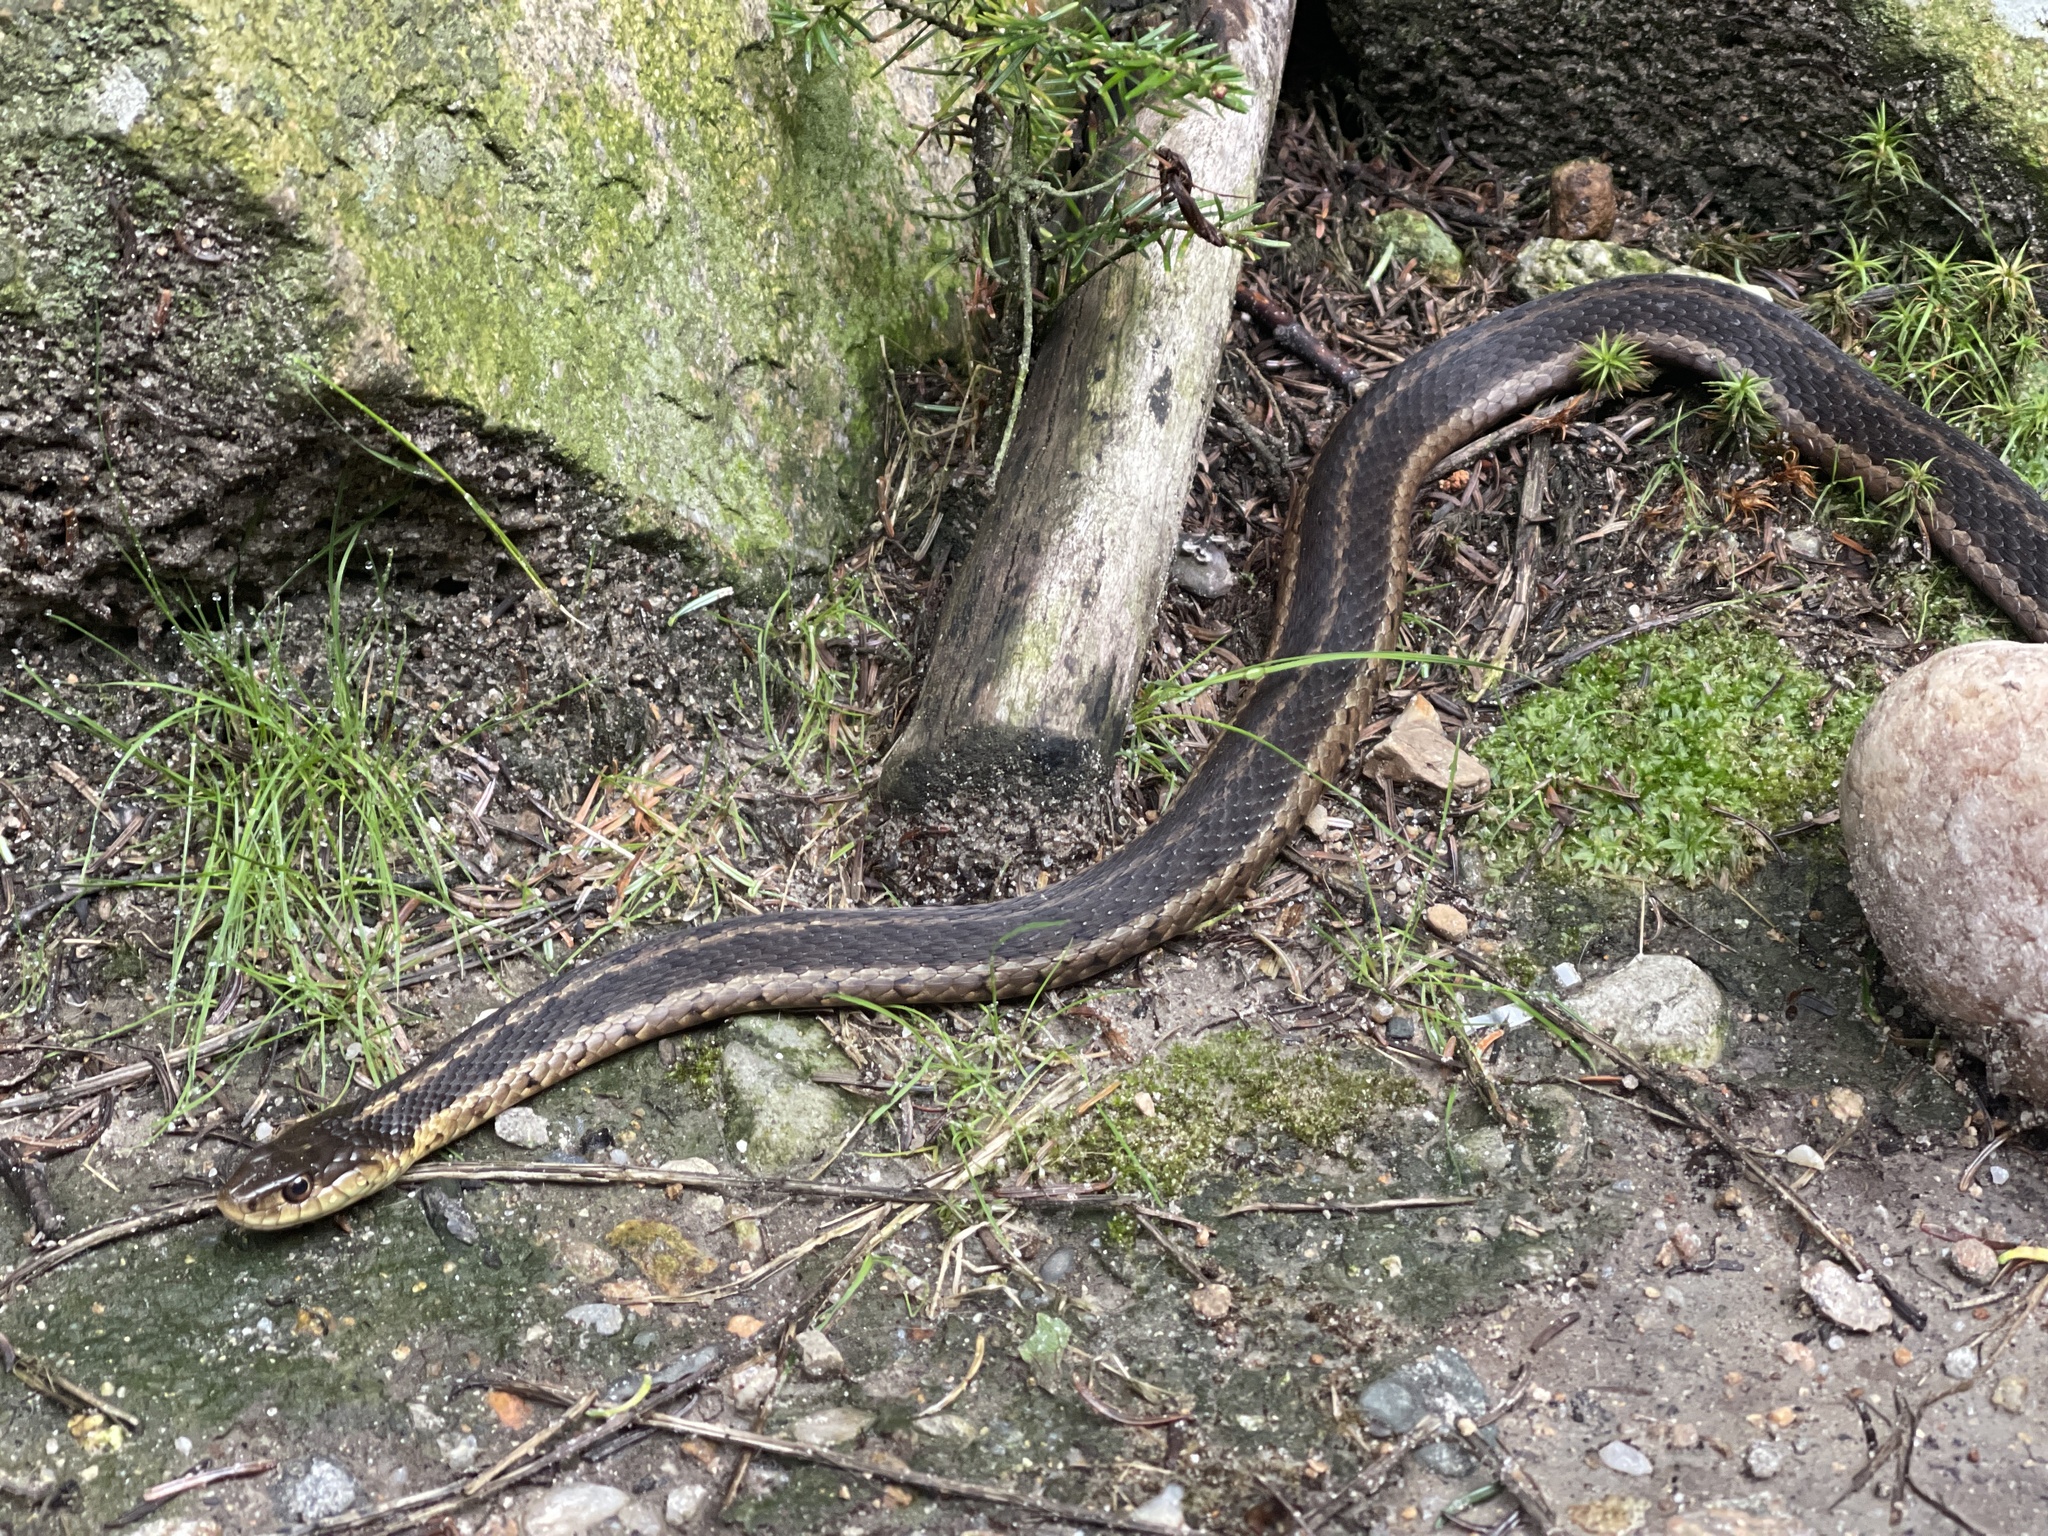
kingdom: Animalia
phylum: Chordata
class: Squamata
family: Colubridae
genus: Thamnophis
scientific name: Thamnophis sirtalis
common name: Common garter snake
